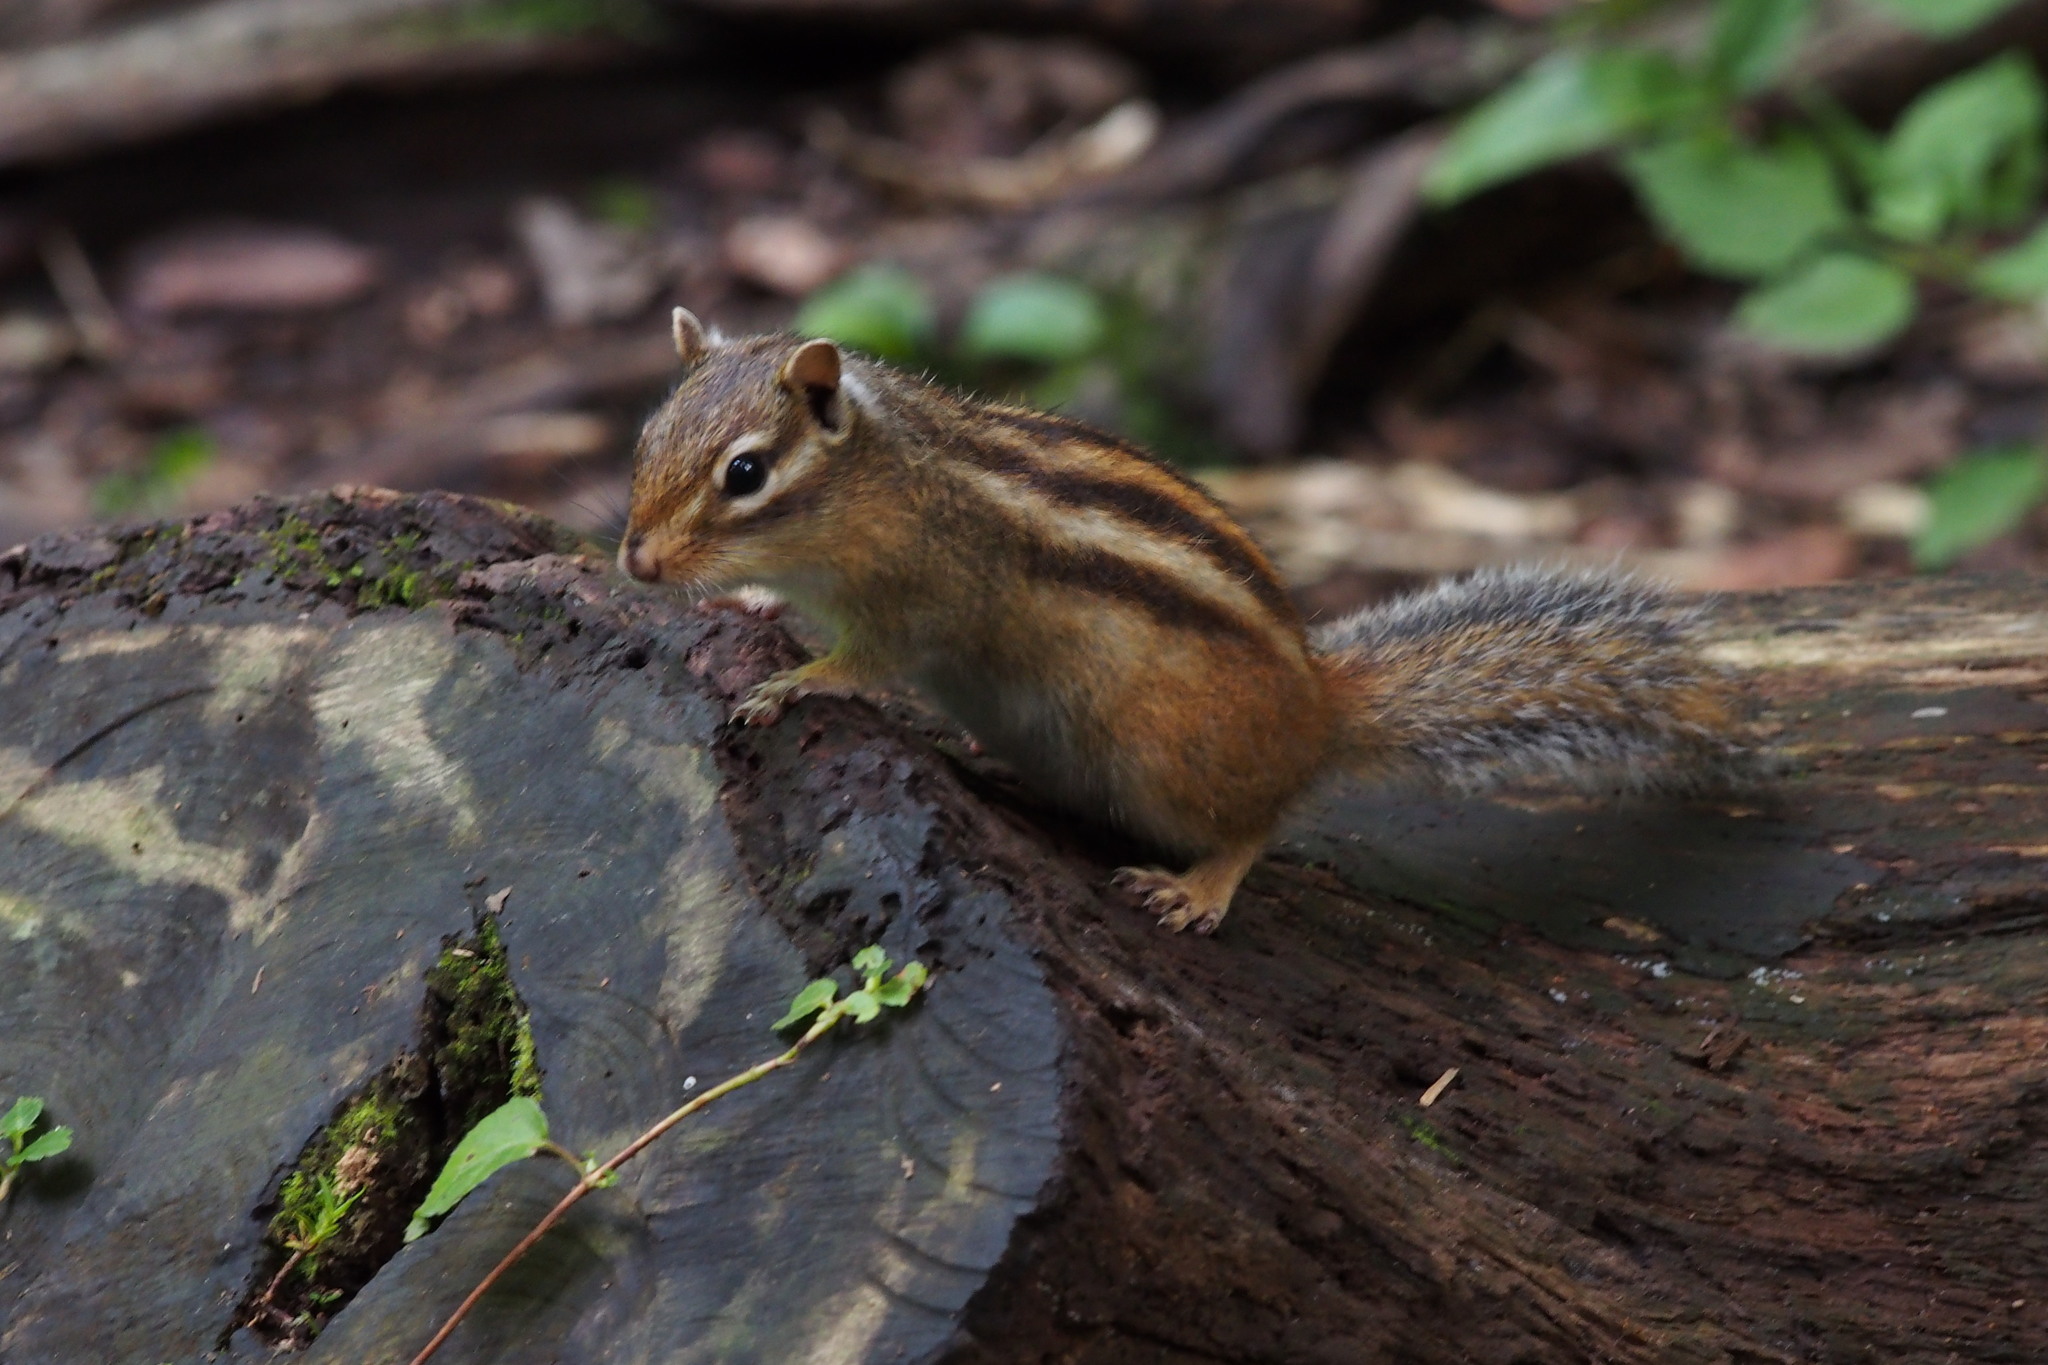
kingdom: Animalia
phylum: Chordata
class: Mammalia
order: Rodentia
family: Sciuridae
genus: Tamias
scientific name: Tamias sibiricus
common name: Siberian chipmunk
